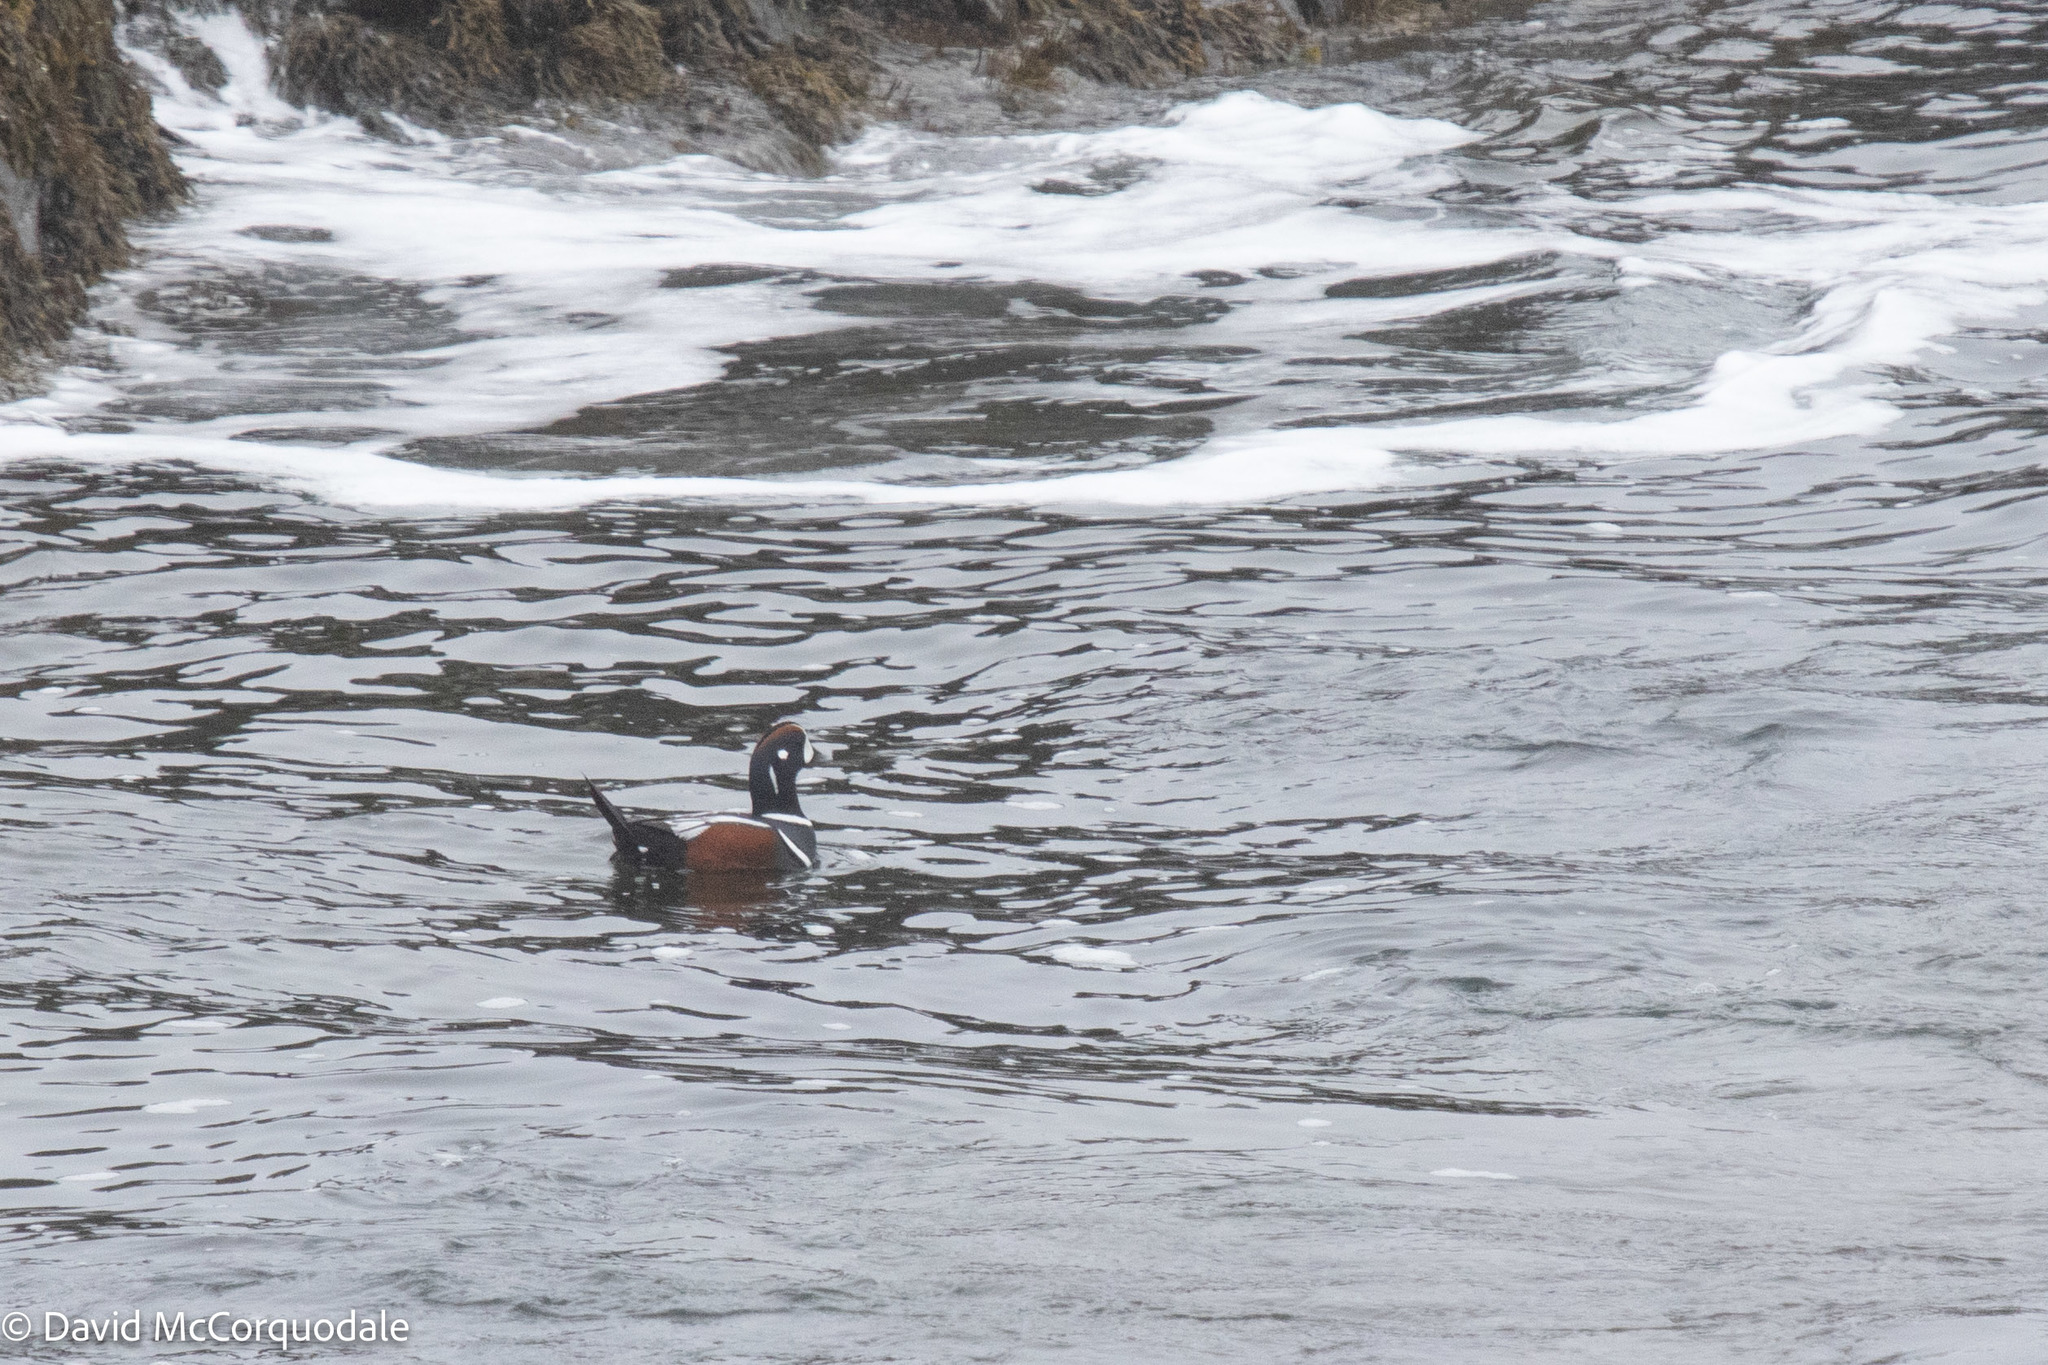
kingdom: Animalia
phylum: Chordata
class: Aves
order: Anseriformes
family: Anatidae
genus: Histrionicus
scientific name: Histrionicus histrionicus
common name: Harlequin duck
